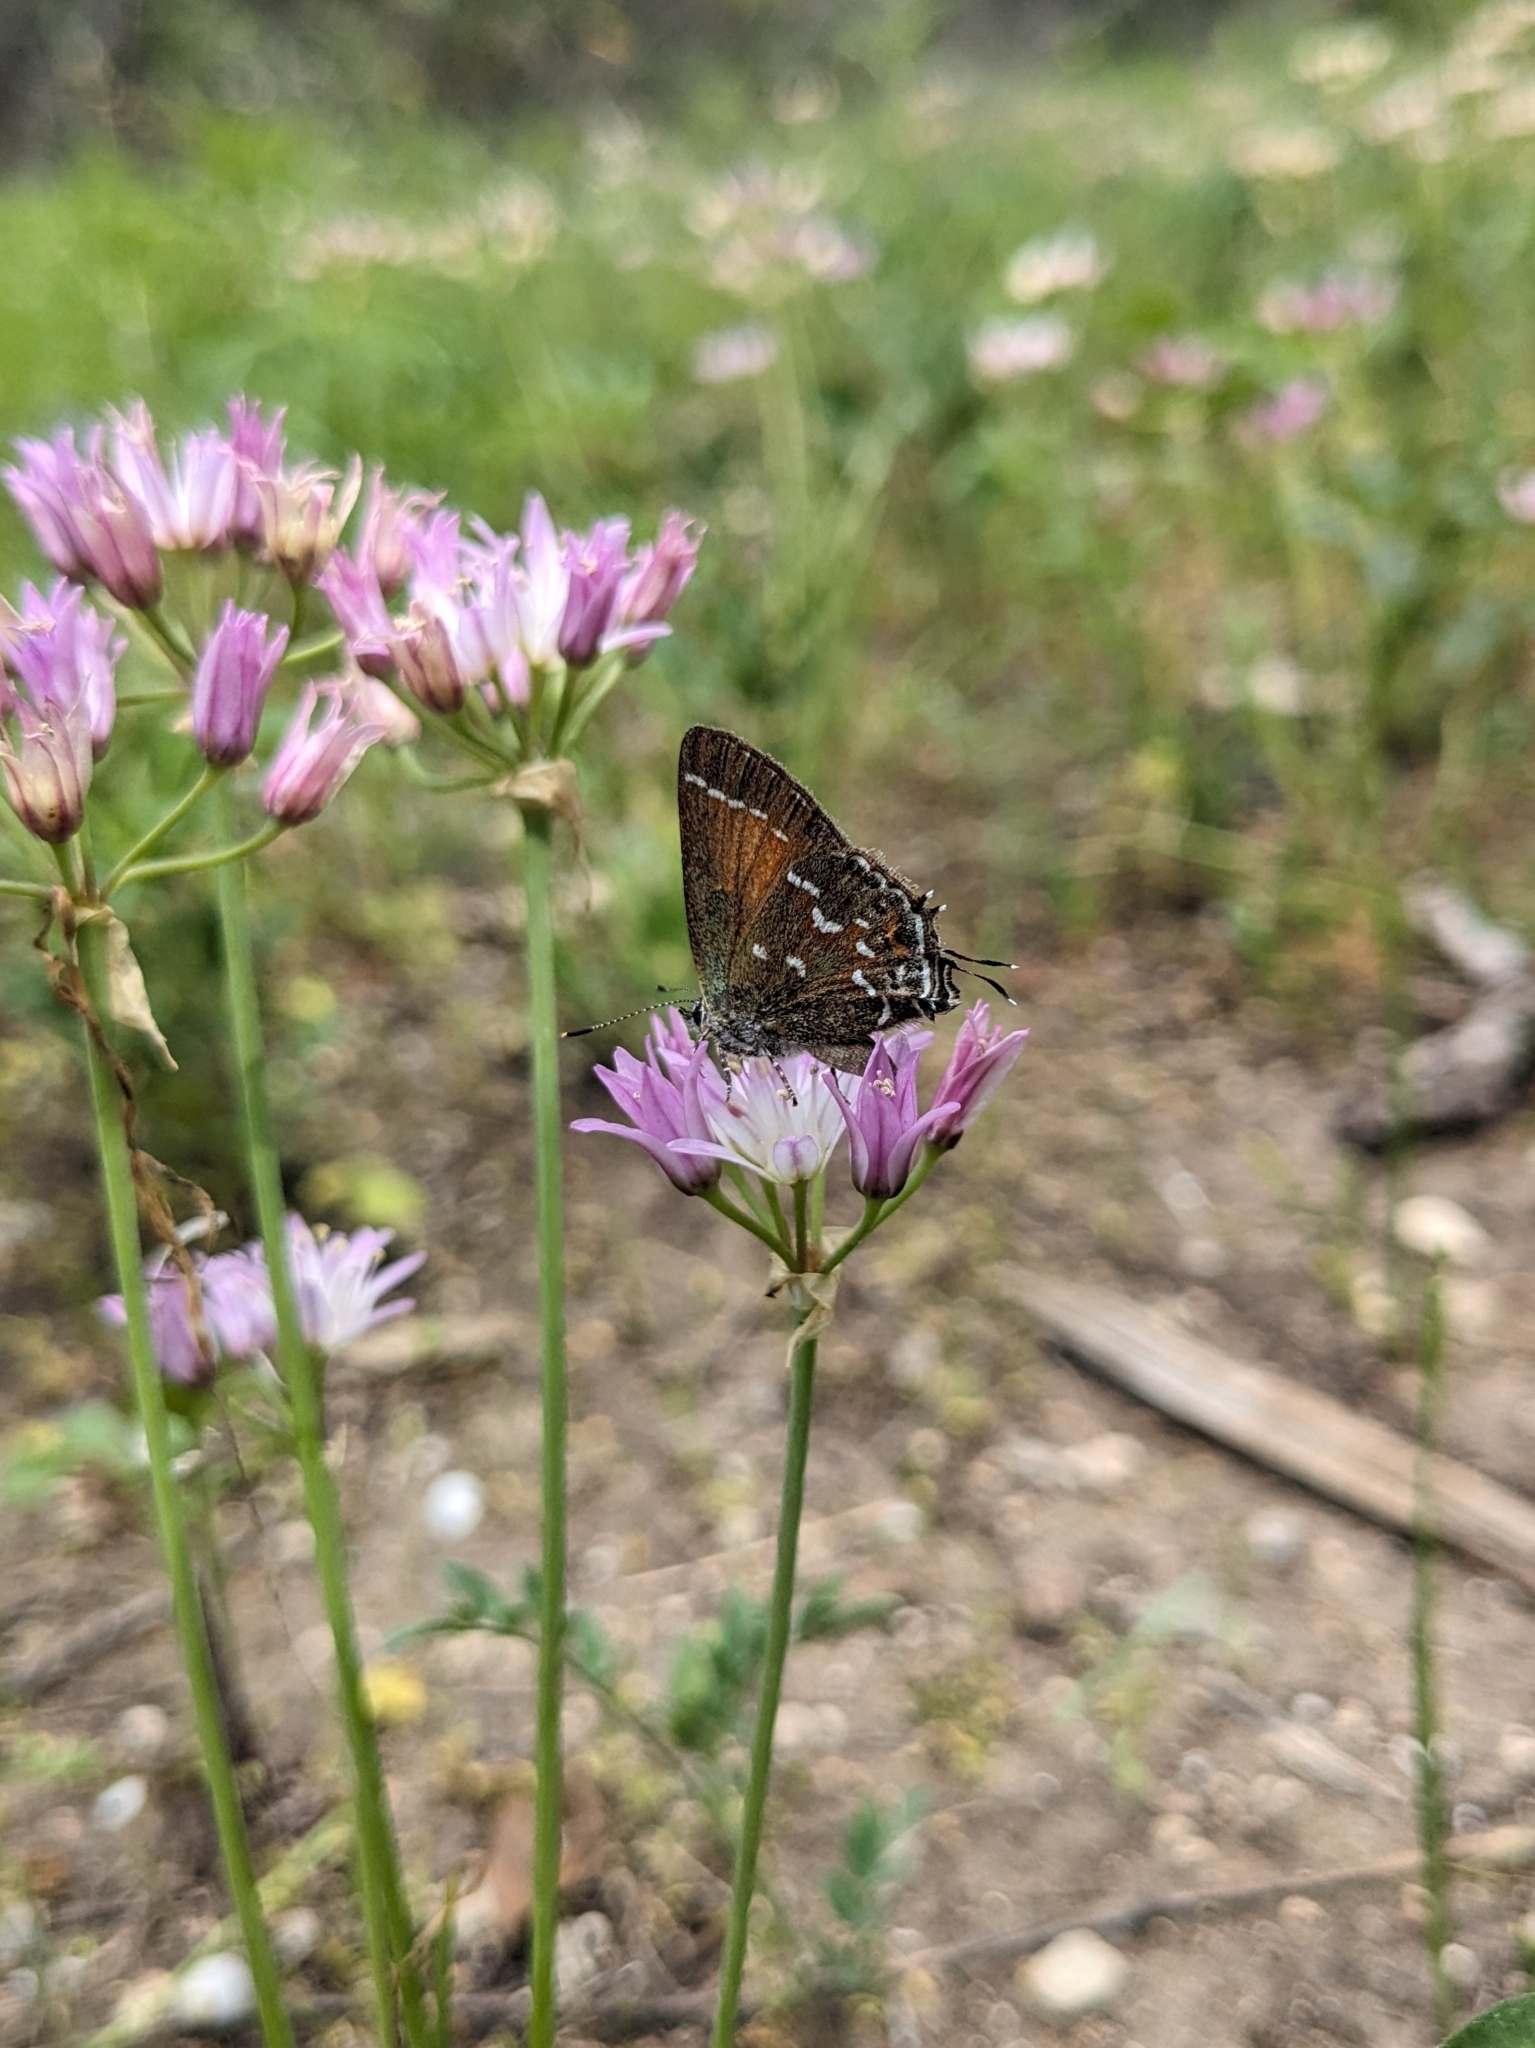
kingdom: Animalia
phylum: Arthropoda
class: Insecta
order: Lepidoptera
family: Lycaenidae
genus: Mitoura
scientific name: Mitoura gryneus
